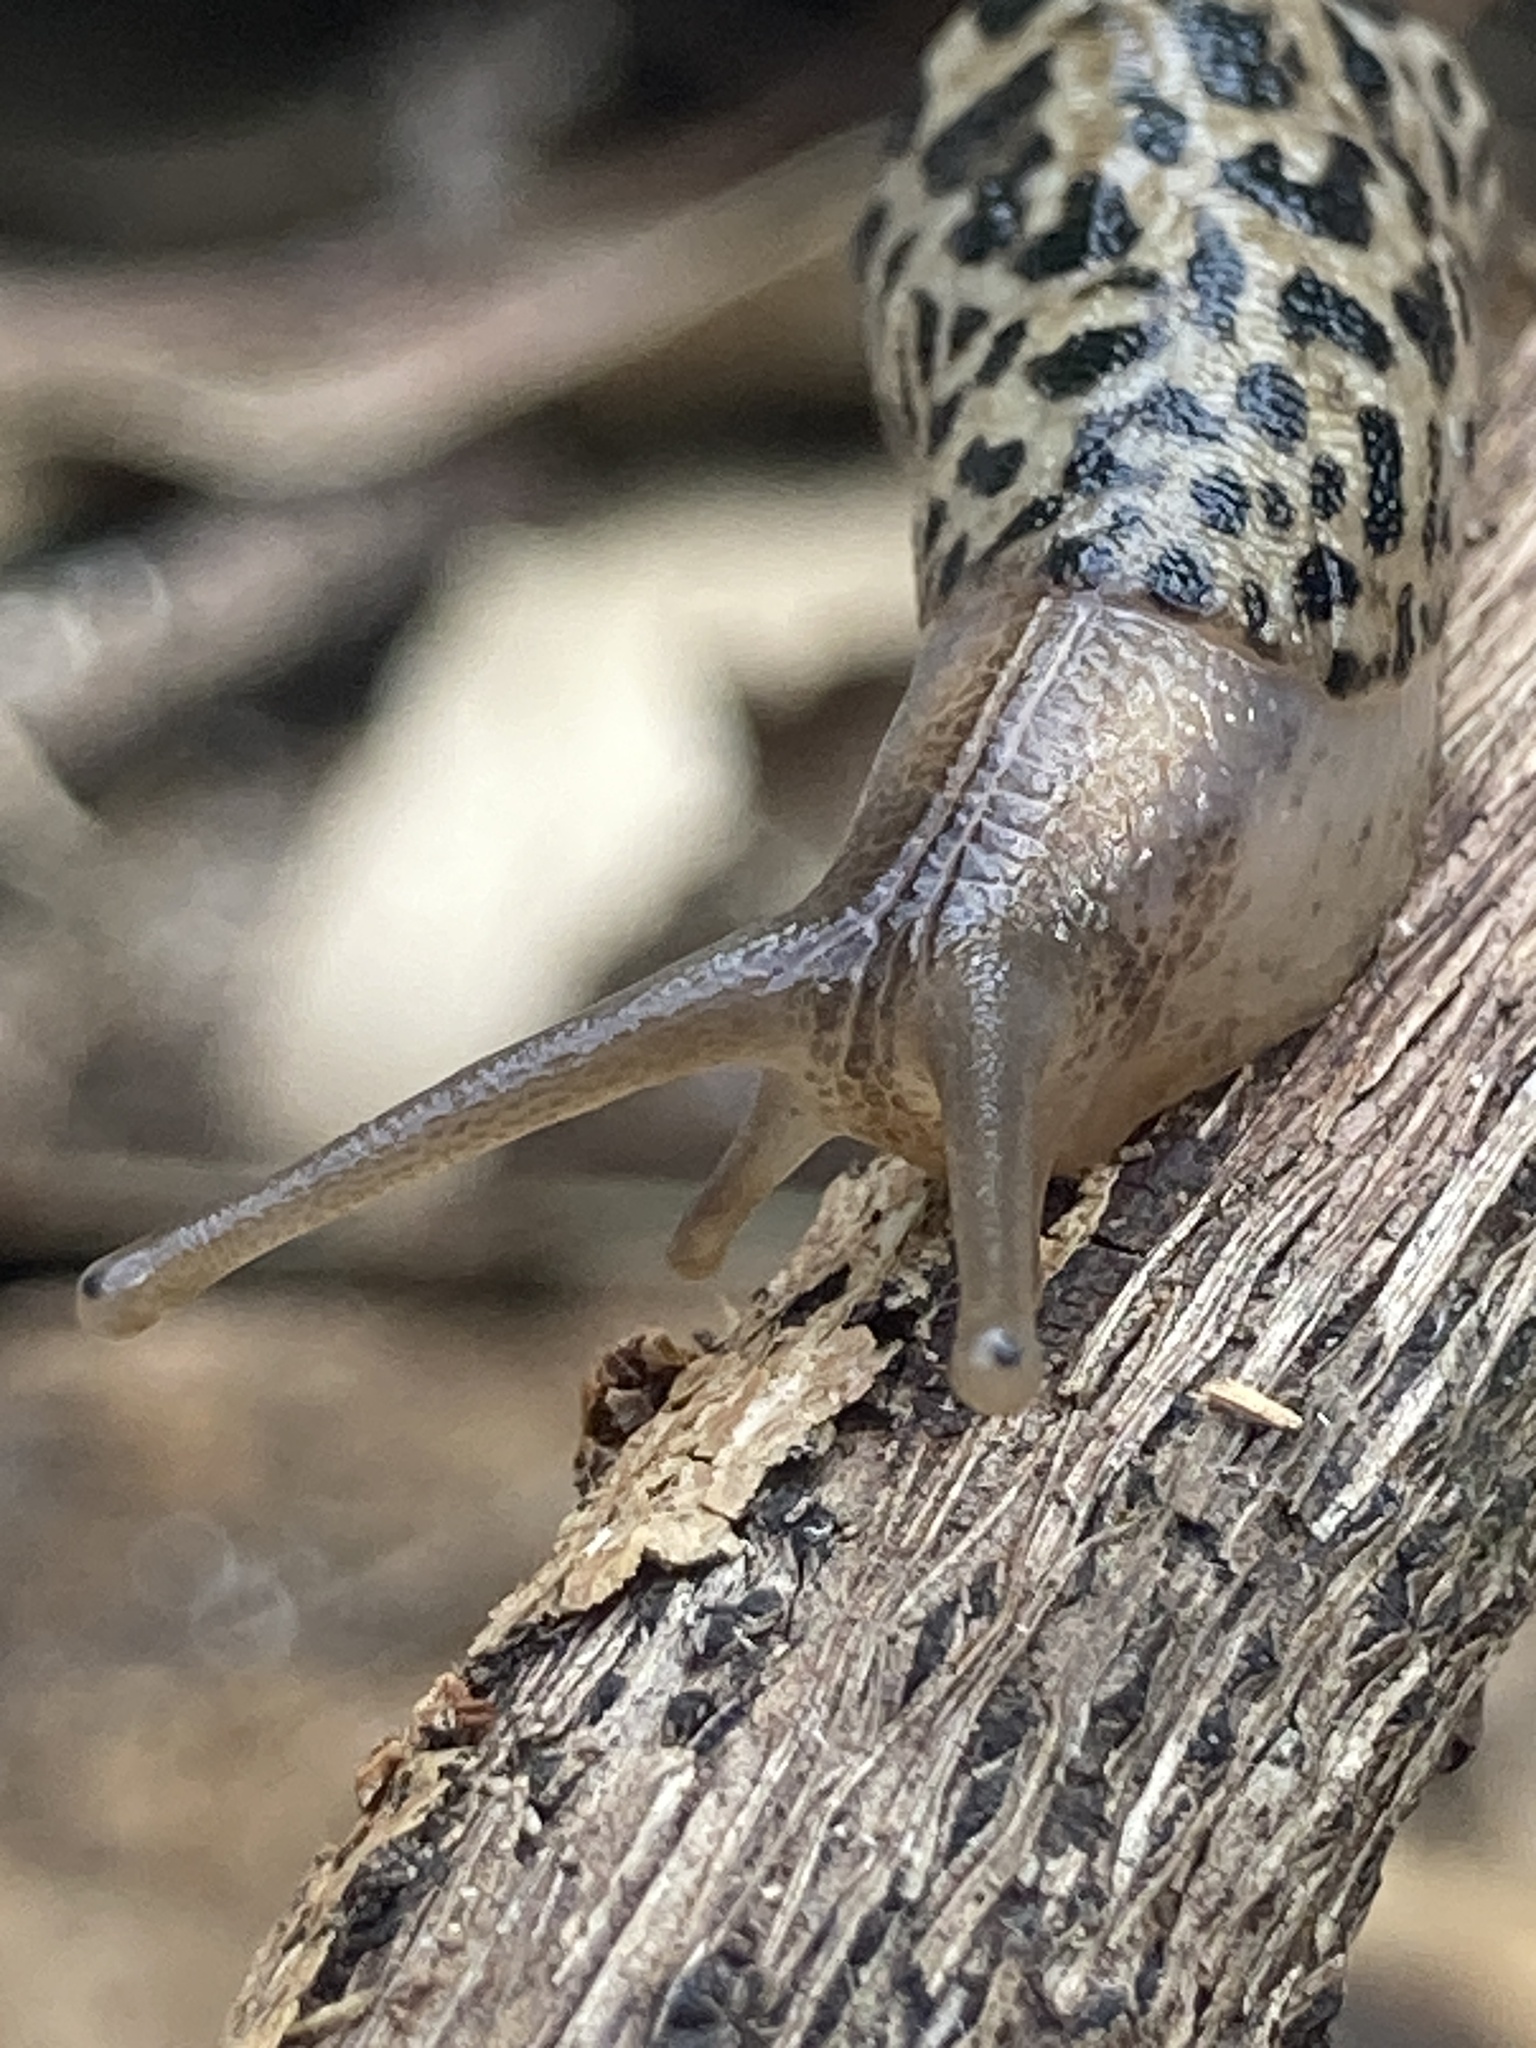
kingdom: Animalia
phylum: Mollusca
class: Gastropoda
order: Stylommatophora
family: Limacidae
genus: Limax
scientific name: Limax maximus
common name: Great grey slug
